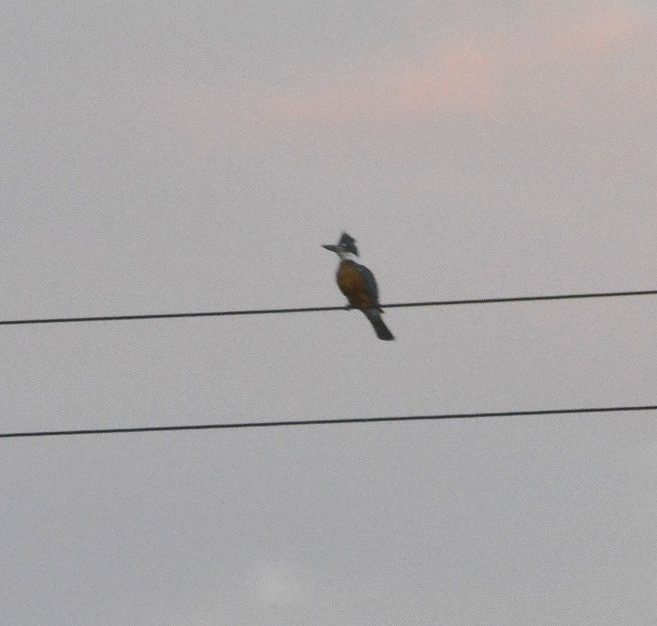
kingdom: Animalia
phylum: Chordata
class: Aves
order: Coraciiformes
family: Alcedinidae
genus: Megaceryle
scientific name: Megaceryle torquata
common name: Ringed kingfisher
